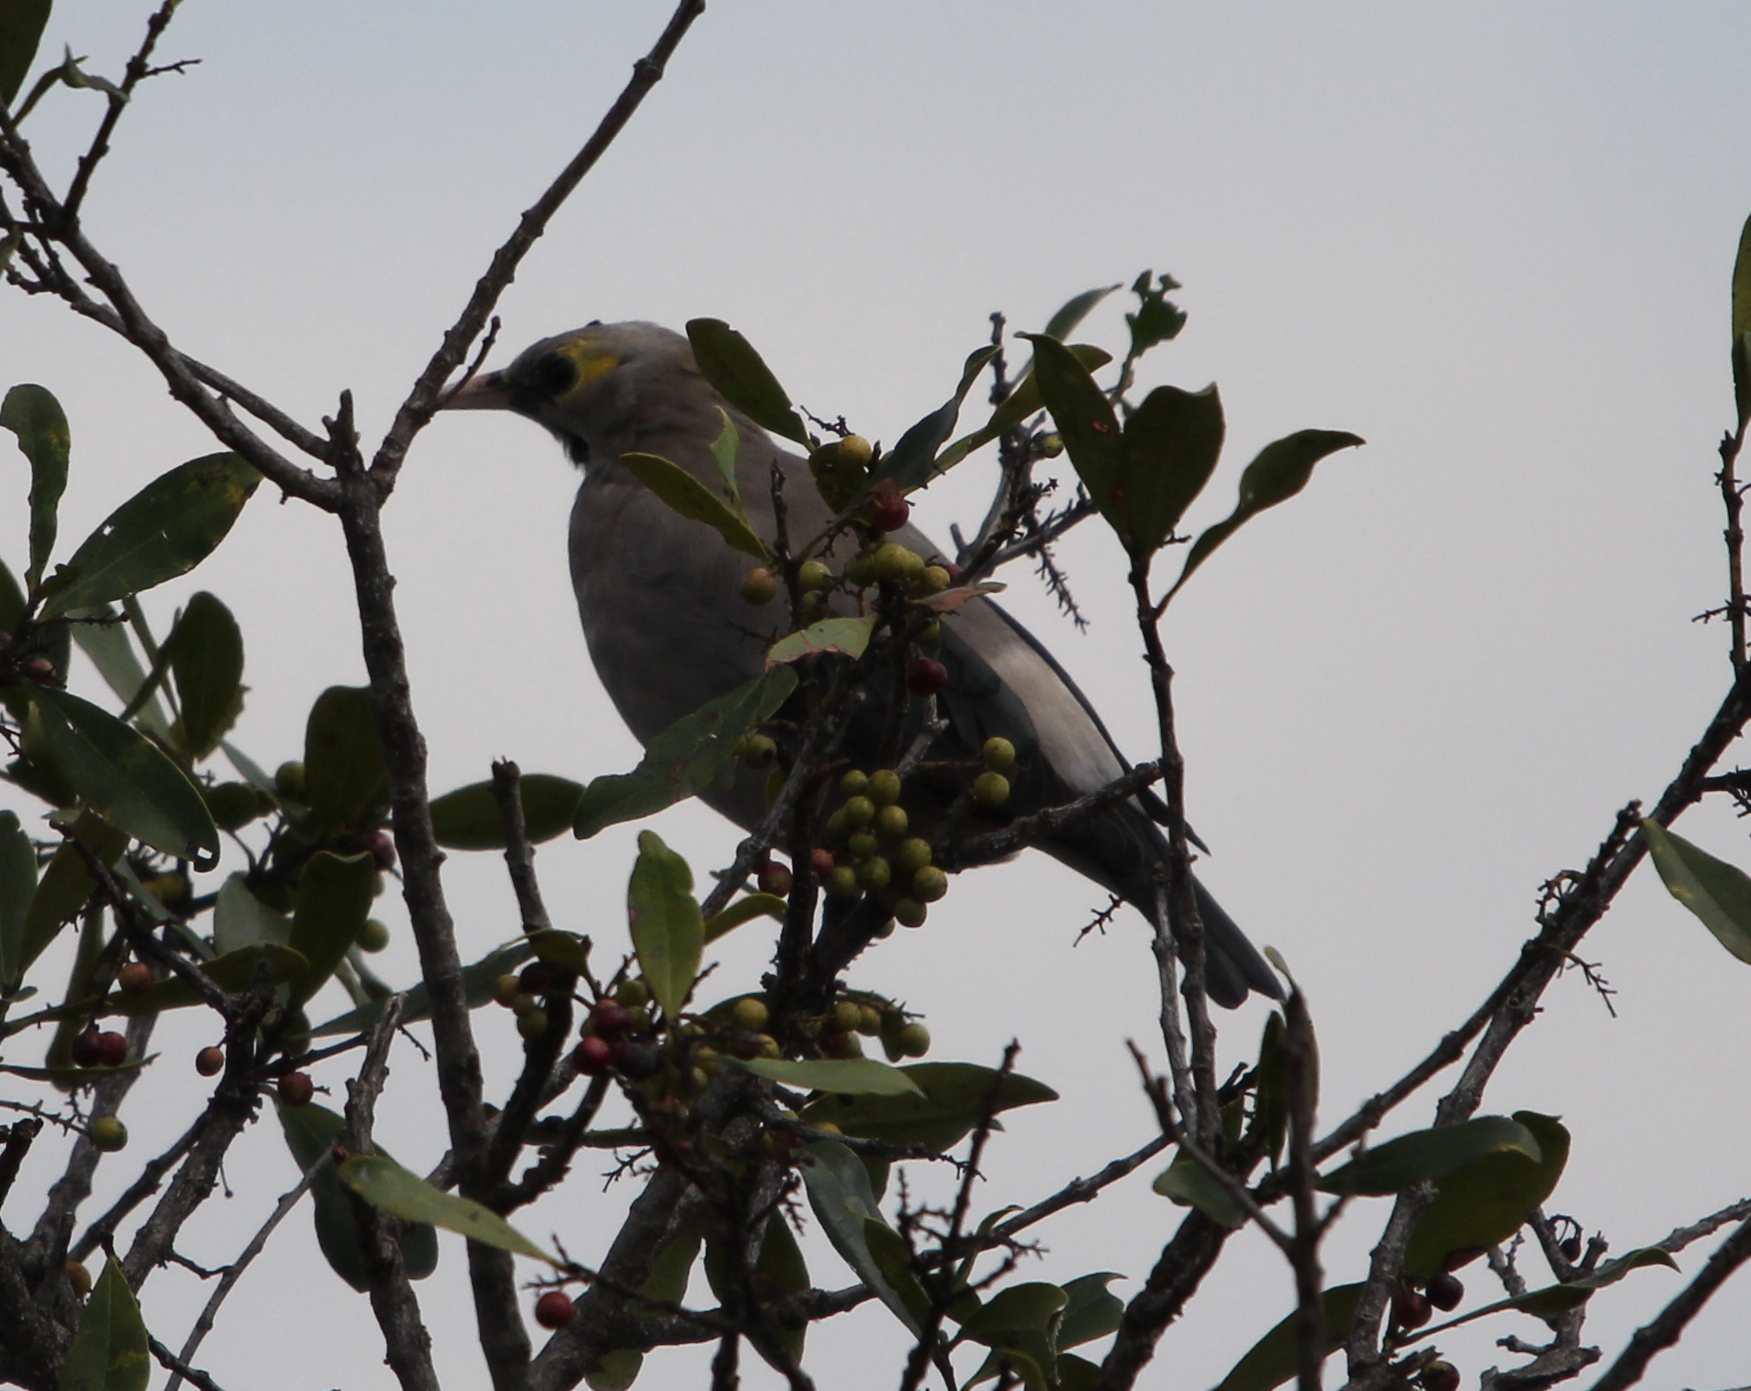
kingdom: Animalia
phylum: Chordata
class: Aves
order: Passeriformes
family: Sturnidae
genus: Creatophora
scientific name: Creatophora cinerea
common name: Wattled starling
